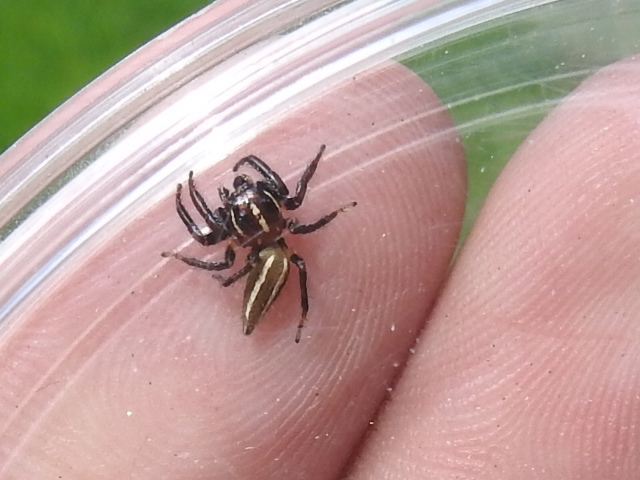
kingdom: Animalia
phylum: Arthropoda
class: Arachnida
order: Araneae
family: Salticidae
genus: Colonus
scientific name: Colonus puerperus
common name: Jumping spiders
